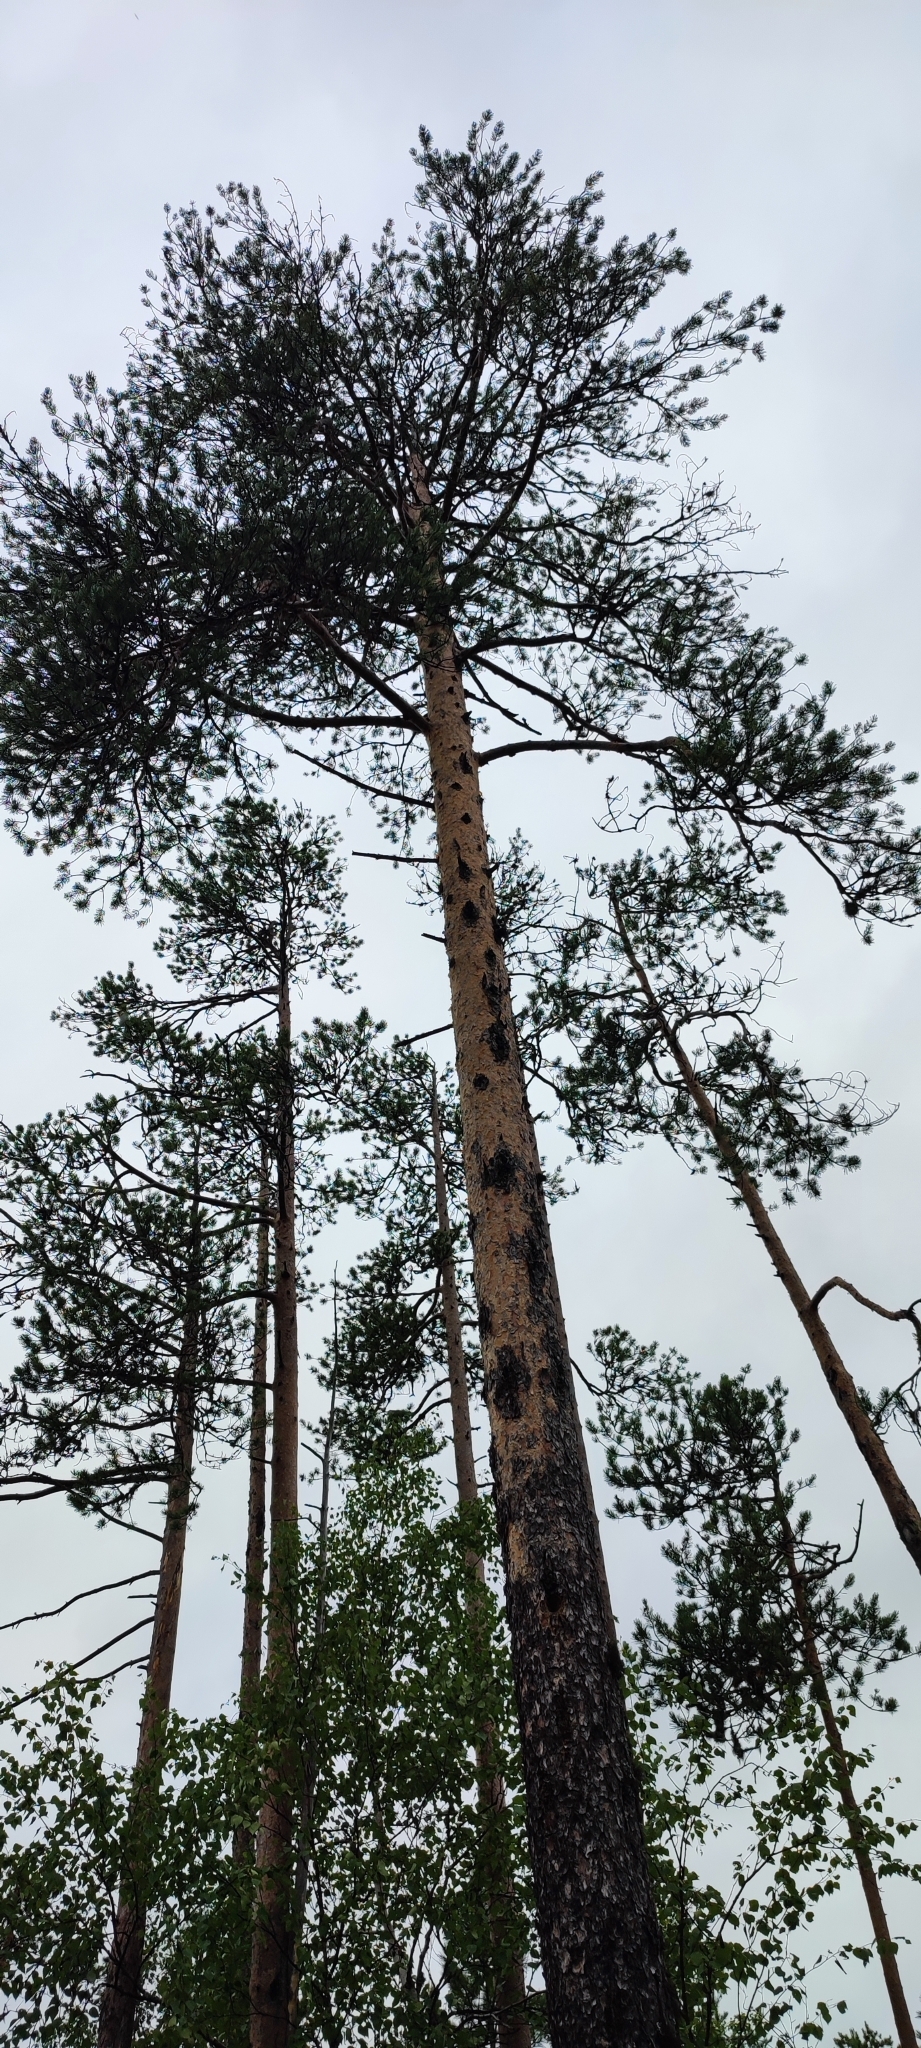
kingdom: Plantae
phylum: Tracheophyta
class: Pinopsida
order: Pinales
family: Pinaceae
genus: Pinus
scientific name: Pinus sylvestris
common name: Scots pine
